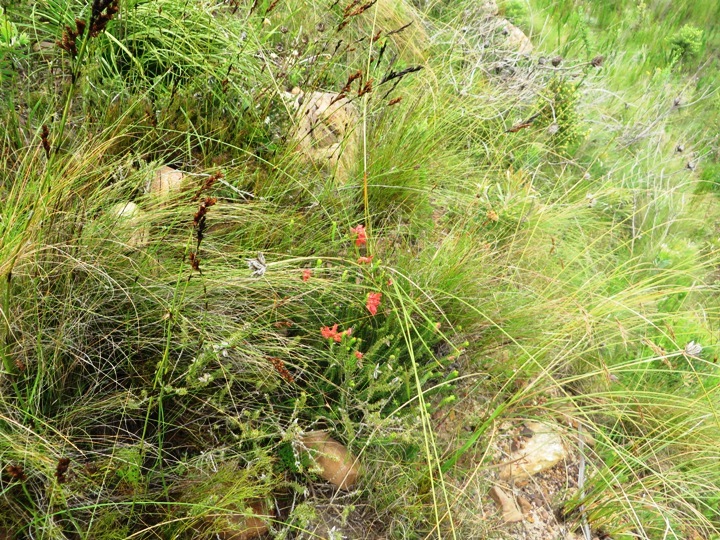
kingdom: Plantae
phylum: Tracheophyta
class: Magnoliopsida
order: Ericales
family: Ericaceae
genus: Erica
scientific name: Erica cerinthoides
